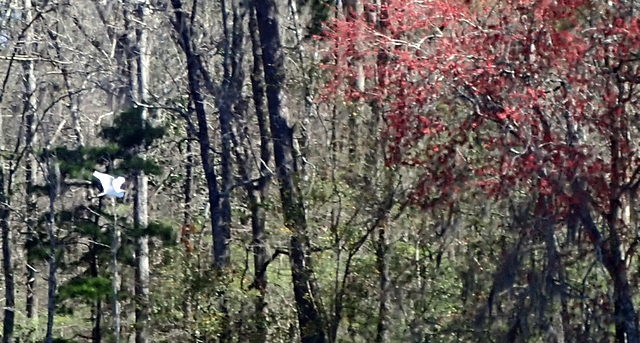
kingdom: Animalia
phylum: Chordata
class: Aves
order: Pelecaniformes
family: Ardeidae
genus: Ardea
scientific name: Ardea alba
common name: Great egret
